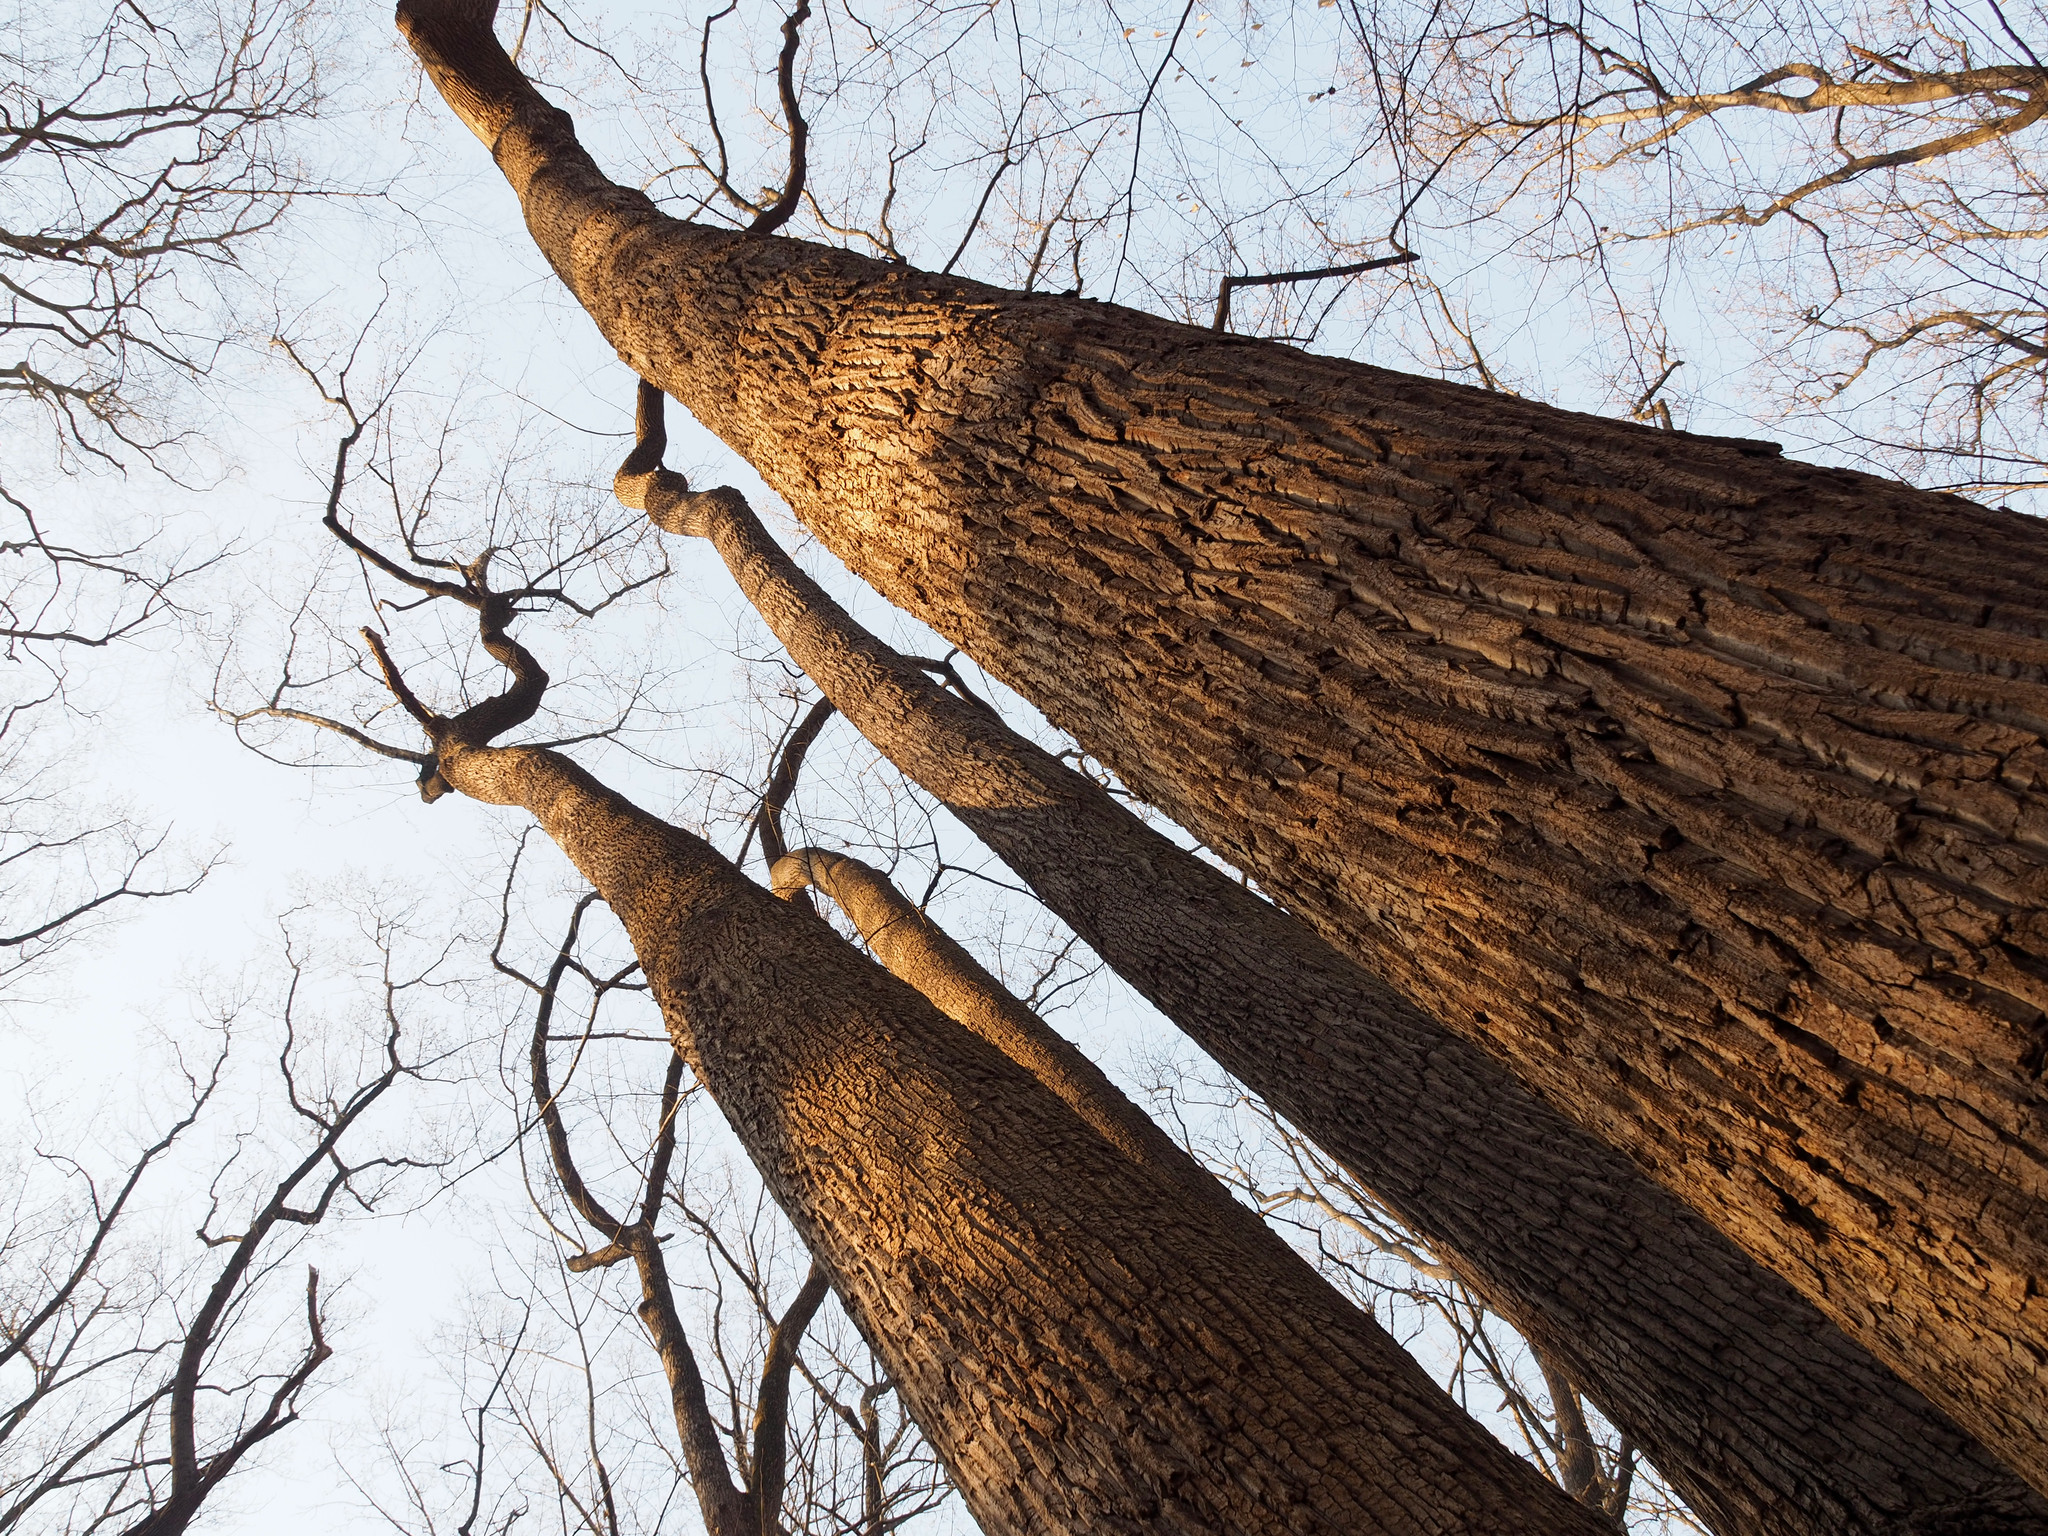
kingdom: Plantae
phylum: Tracheophyta
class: Magnoliopsida
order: Magnoliales
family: Magnoliaceae
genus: Liriodendron
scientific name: Liriodendron tulipifera
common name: Tulip tree
